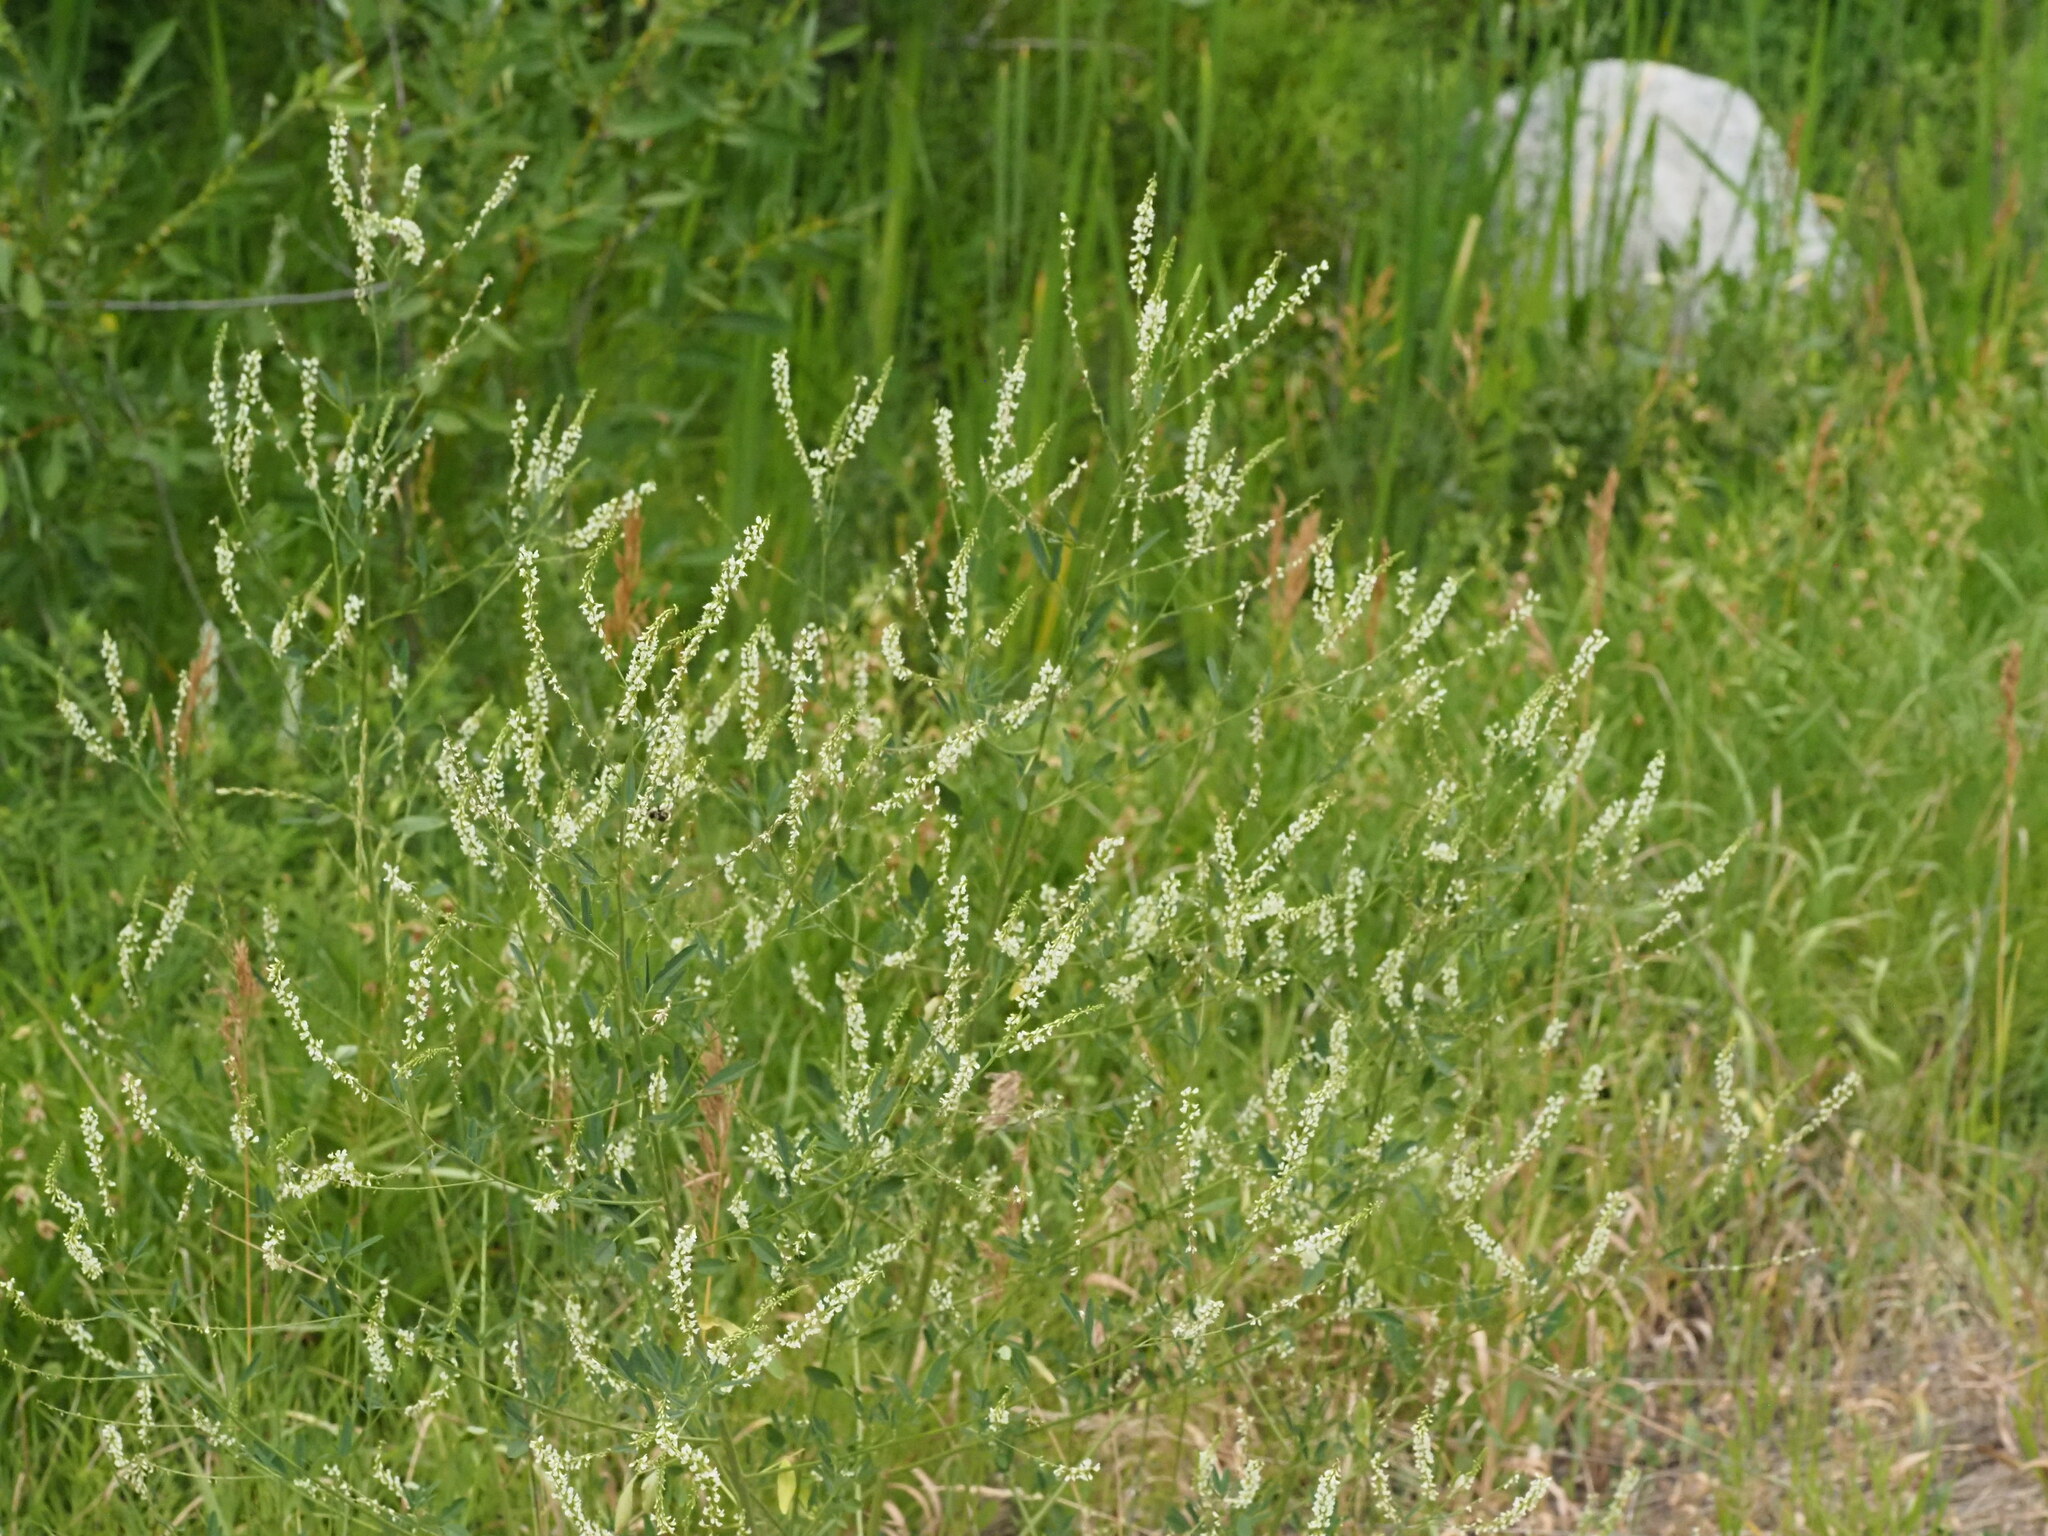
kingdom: Plantae
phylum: Tracheophyta
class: Magnoliopsida
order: Fabales
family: Fabaceae
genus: Melilotus
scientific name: Melilotus albus
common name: White melilot
